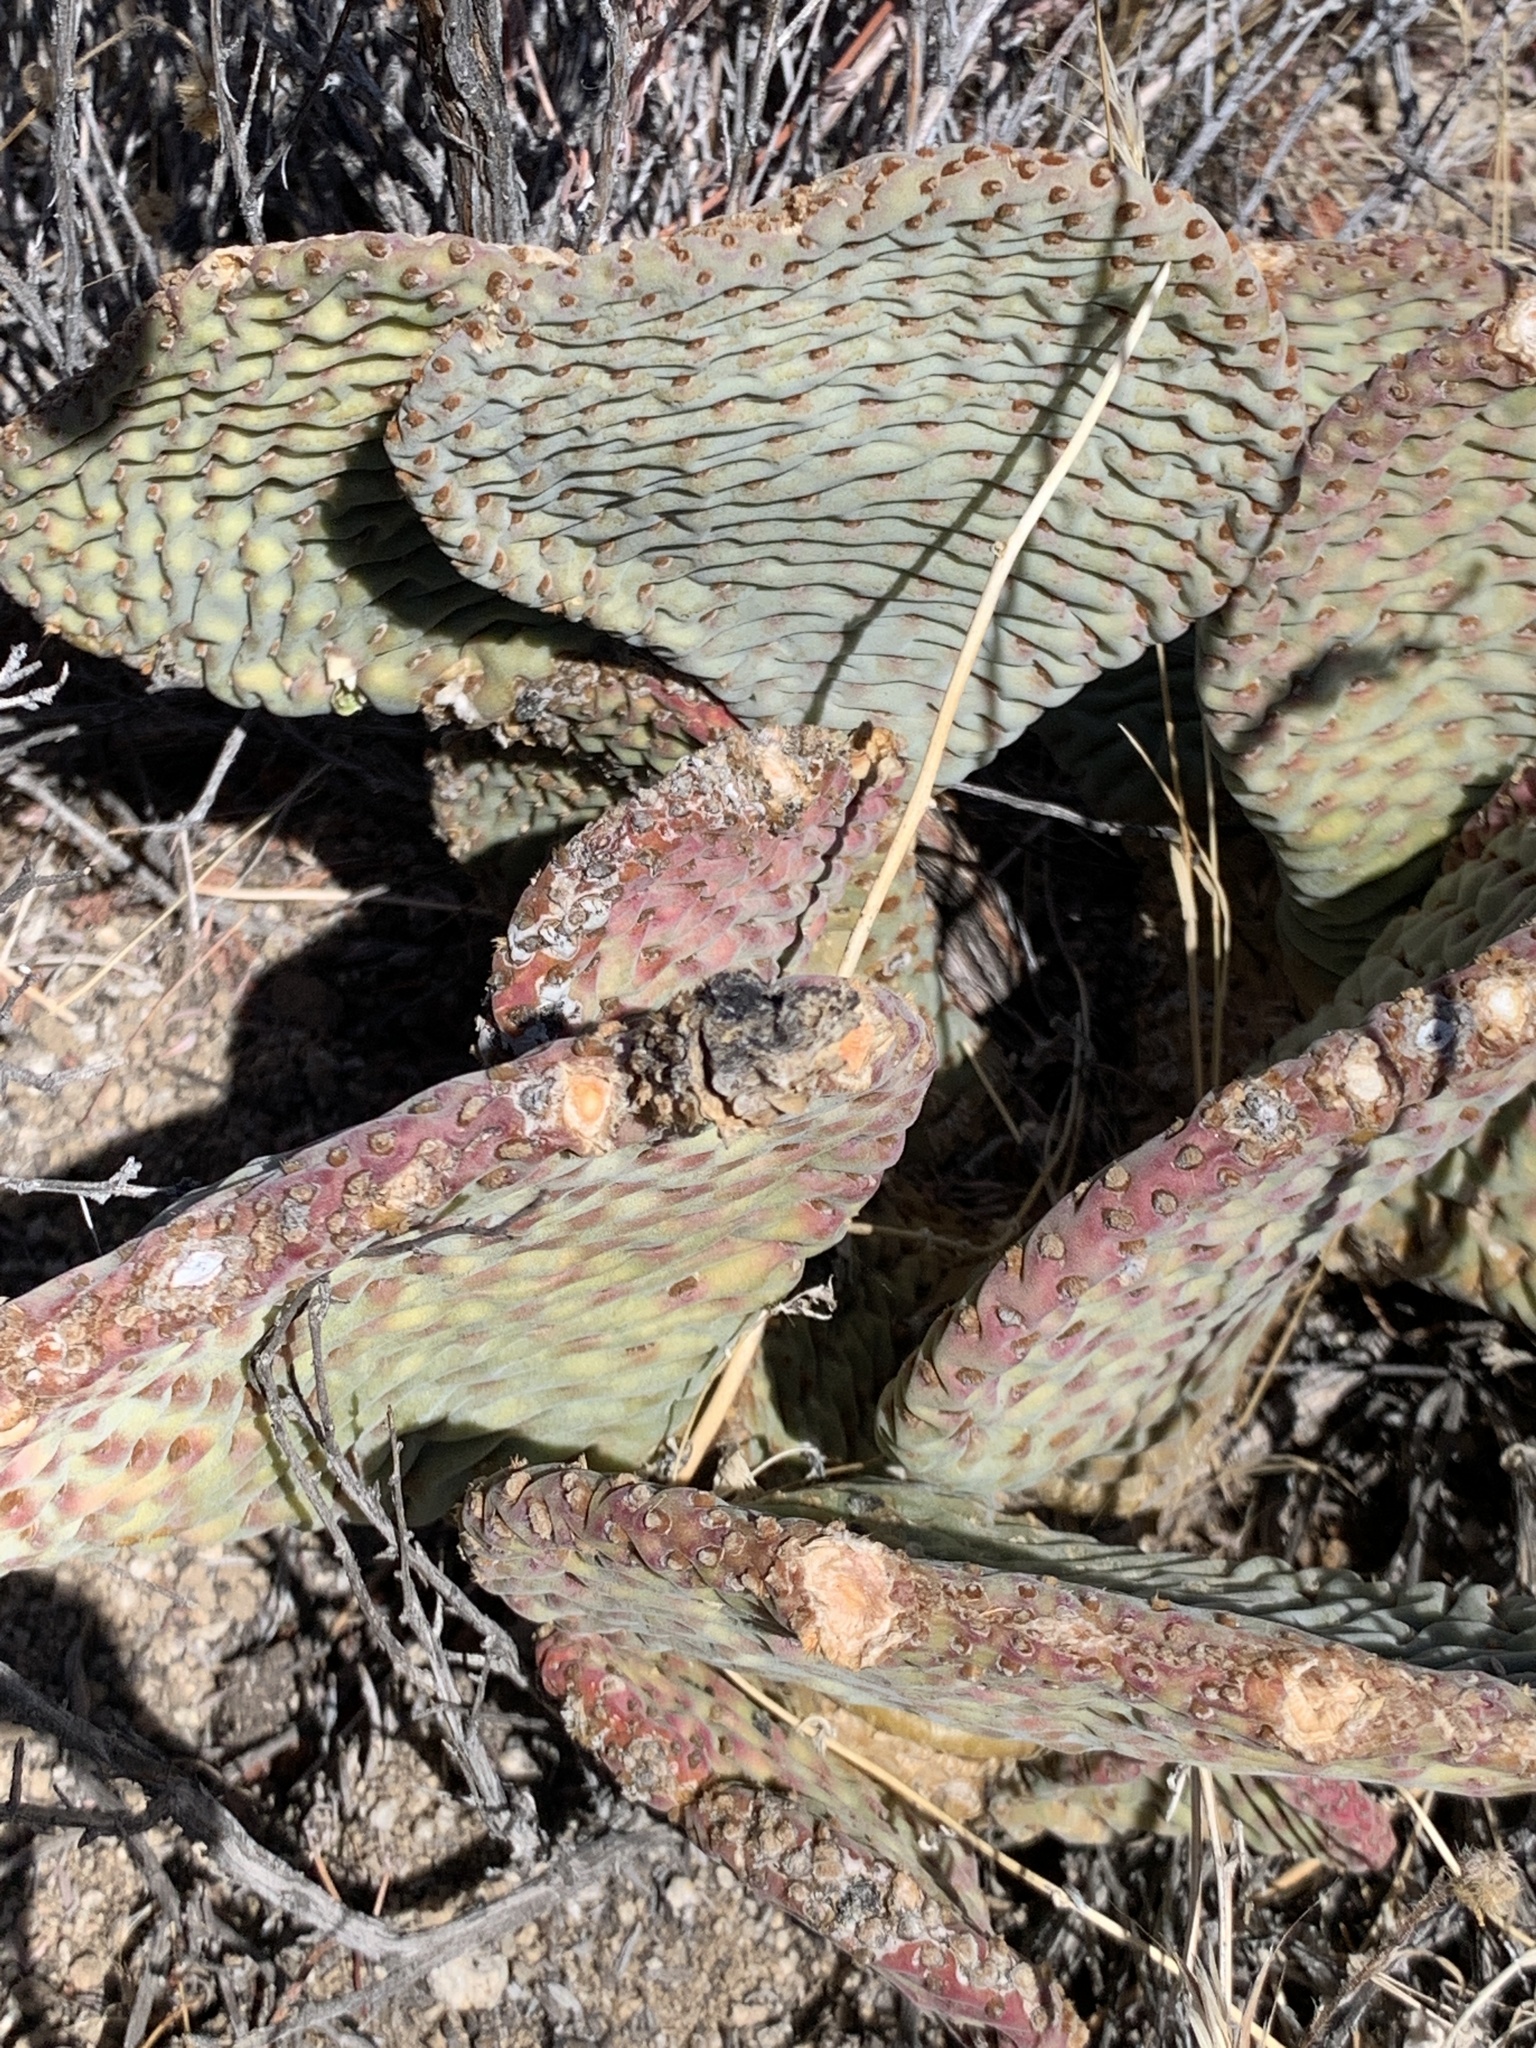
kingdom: Plantae
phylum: Tracheophyta
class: Magnoliopsida
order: Caryophyllales
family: Cactaceae
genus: Opuntia
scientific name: Opuntia basilaris
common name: Beavertail prickly-pear
